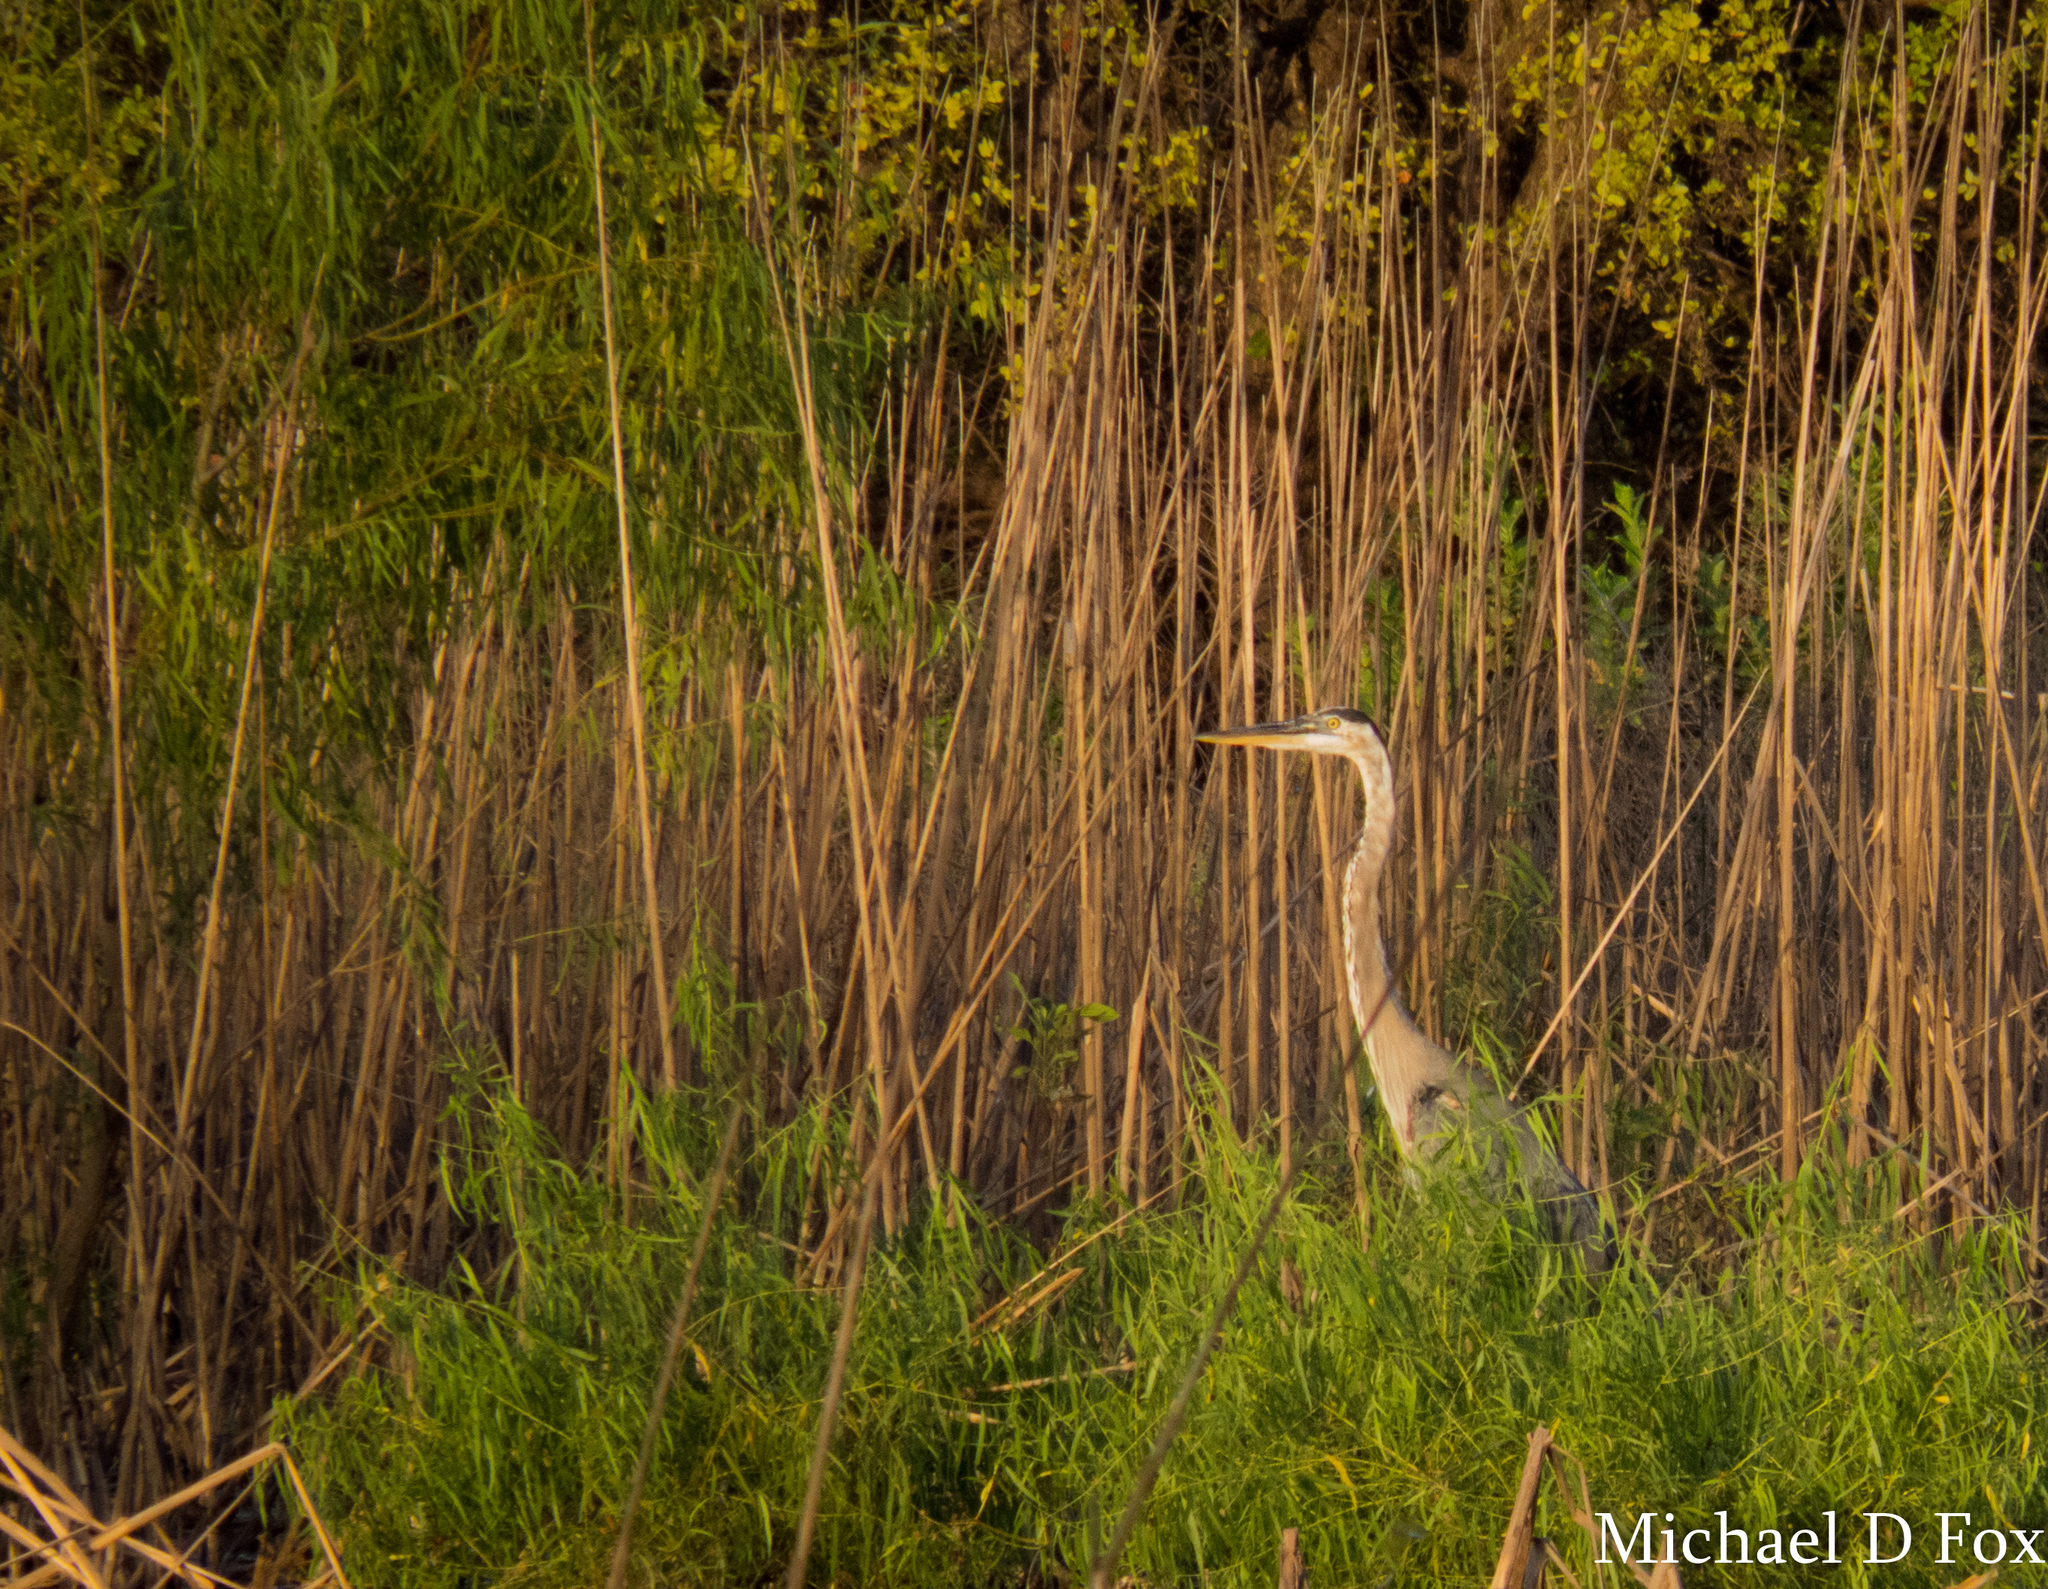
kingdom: Animalia
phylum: Chordata
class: Aves
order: Pelecaniformes
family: Ardeidae
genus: Ardea
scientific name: Ardea herodias
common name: Great blue heron
